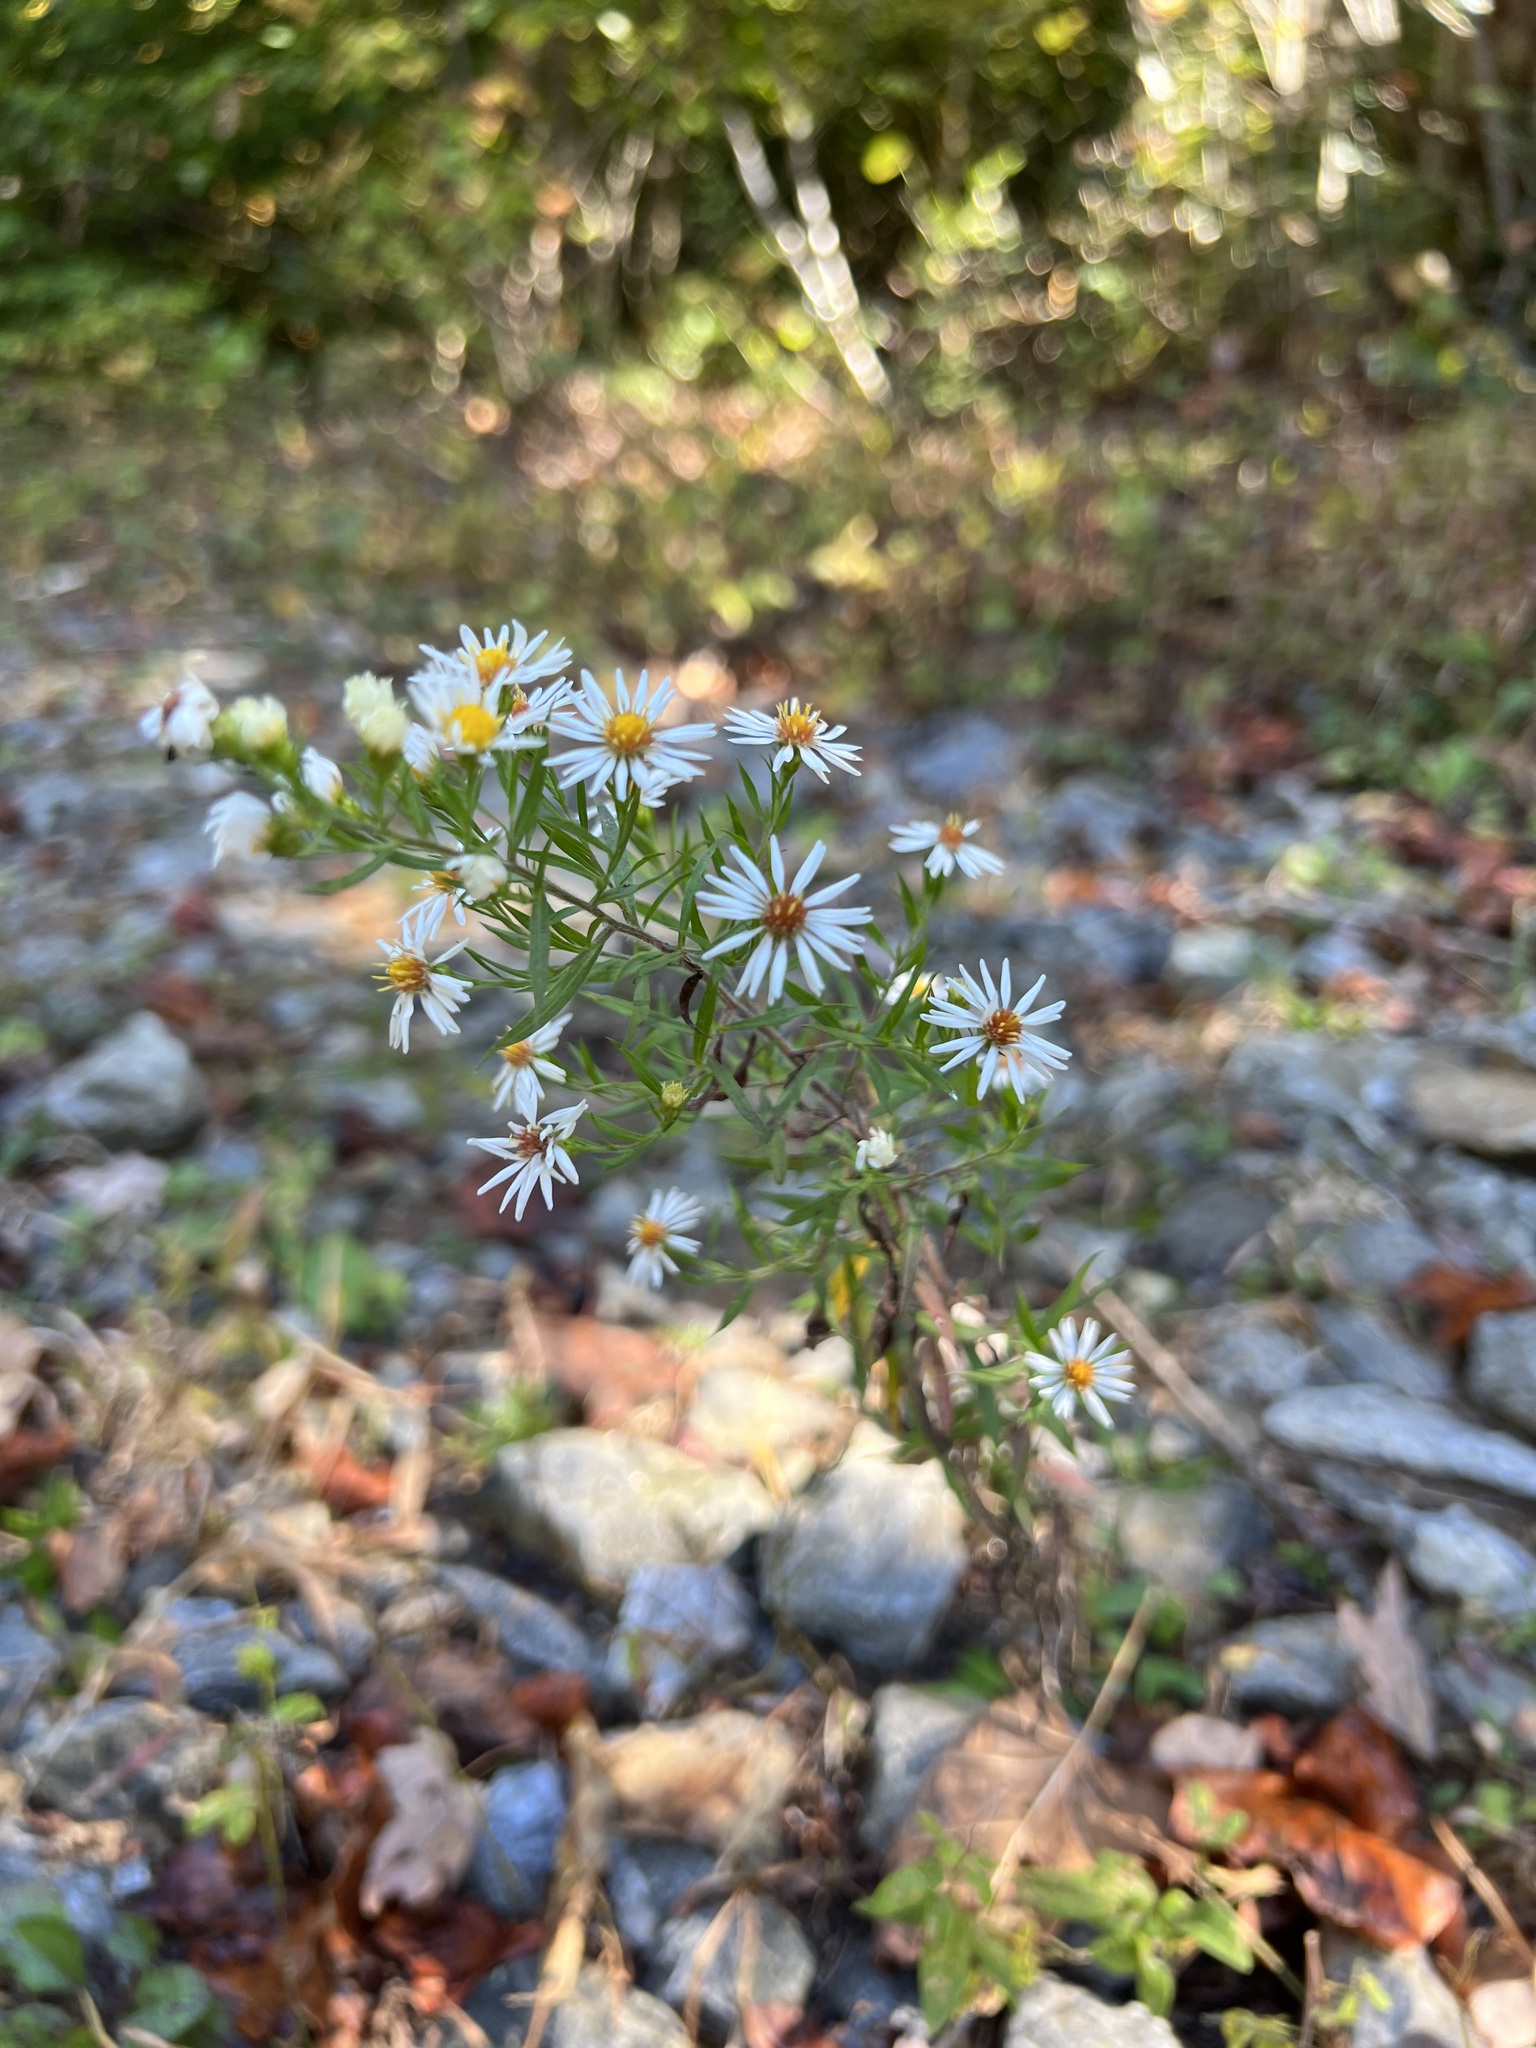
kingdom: Plantae
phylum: Tracheophyta
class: Magnoliopsida
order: Asterales
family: Asteraceae
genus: Symphyotrichum
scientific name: Symphyotrichum lanceolatum
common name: Panicled aster
